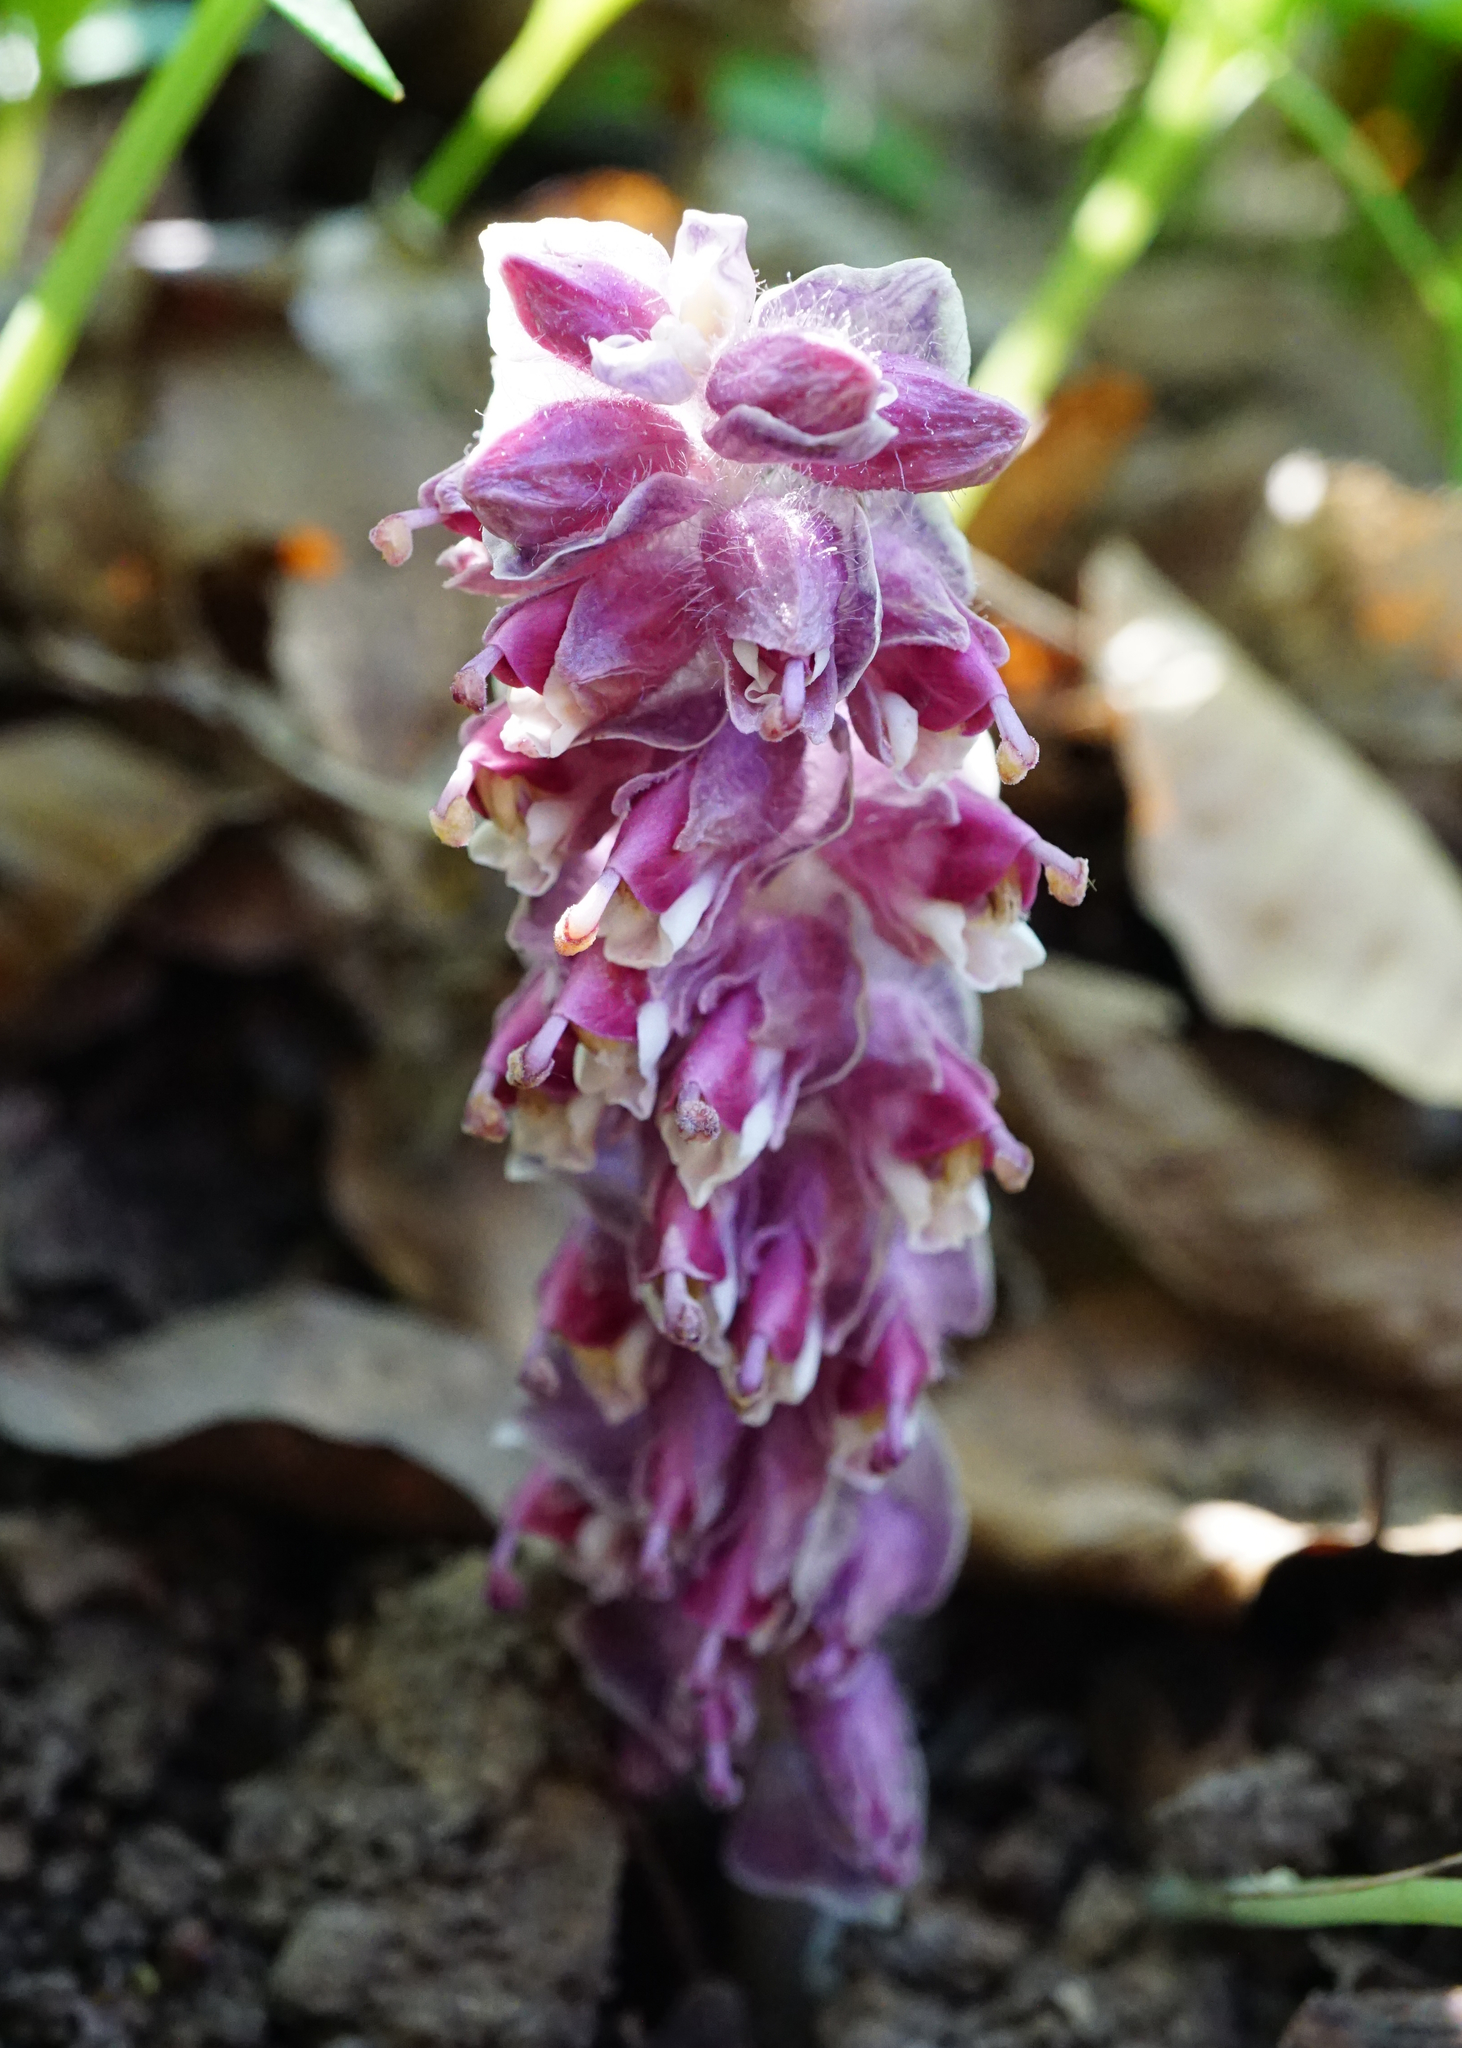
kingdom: Plantae
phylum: Tracheophyta
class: Magnoliopsida
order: Lamiales
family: Orobanchaceae
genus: Lathraea
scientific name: Lathraea squamaria
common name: Toothwort
